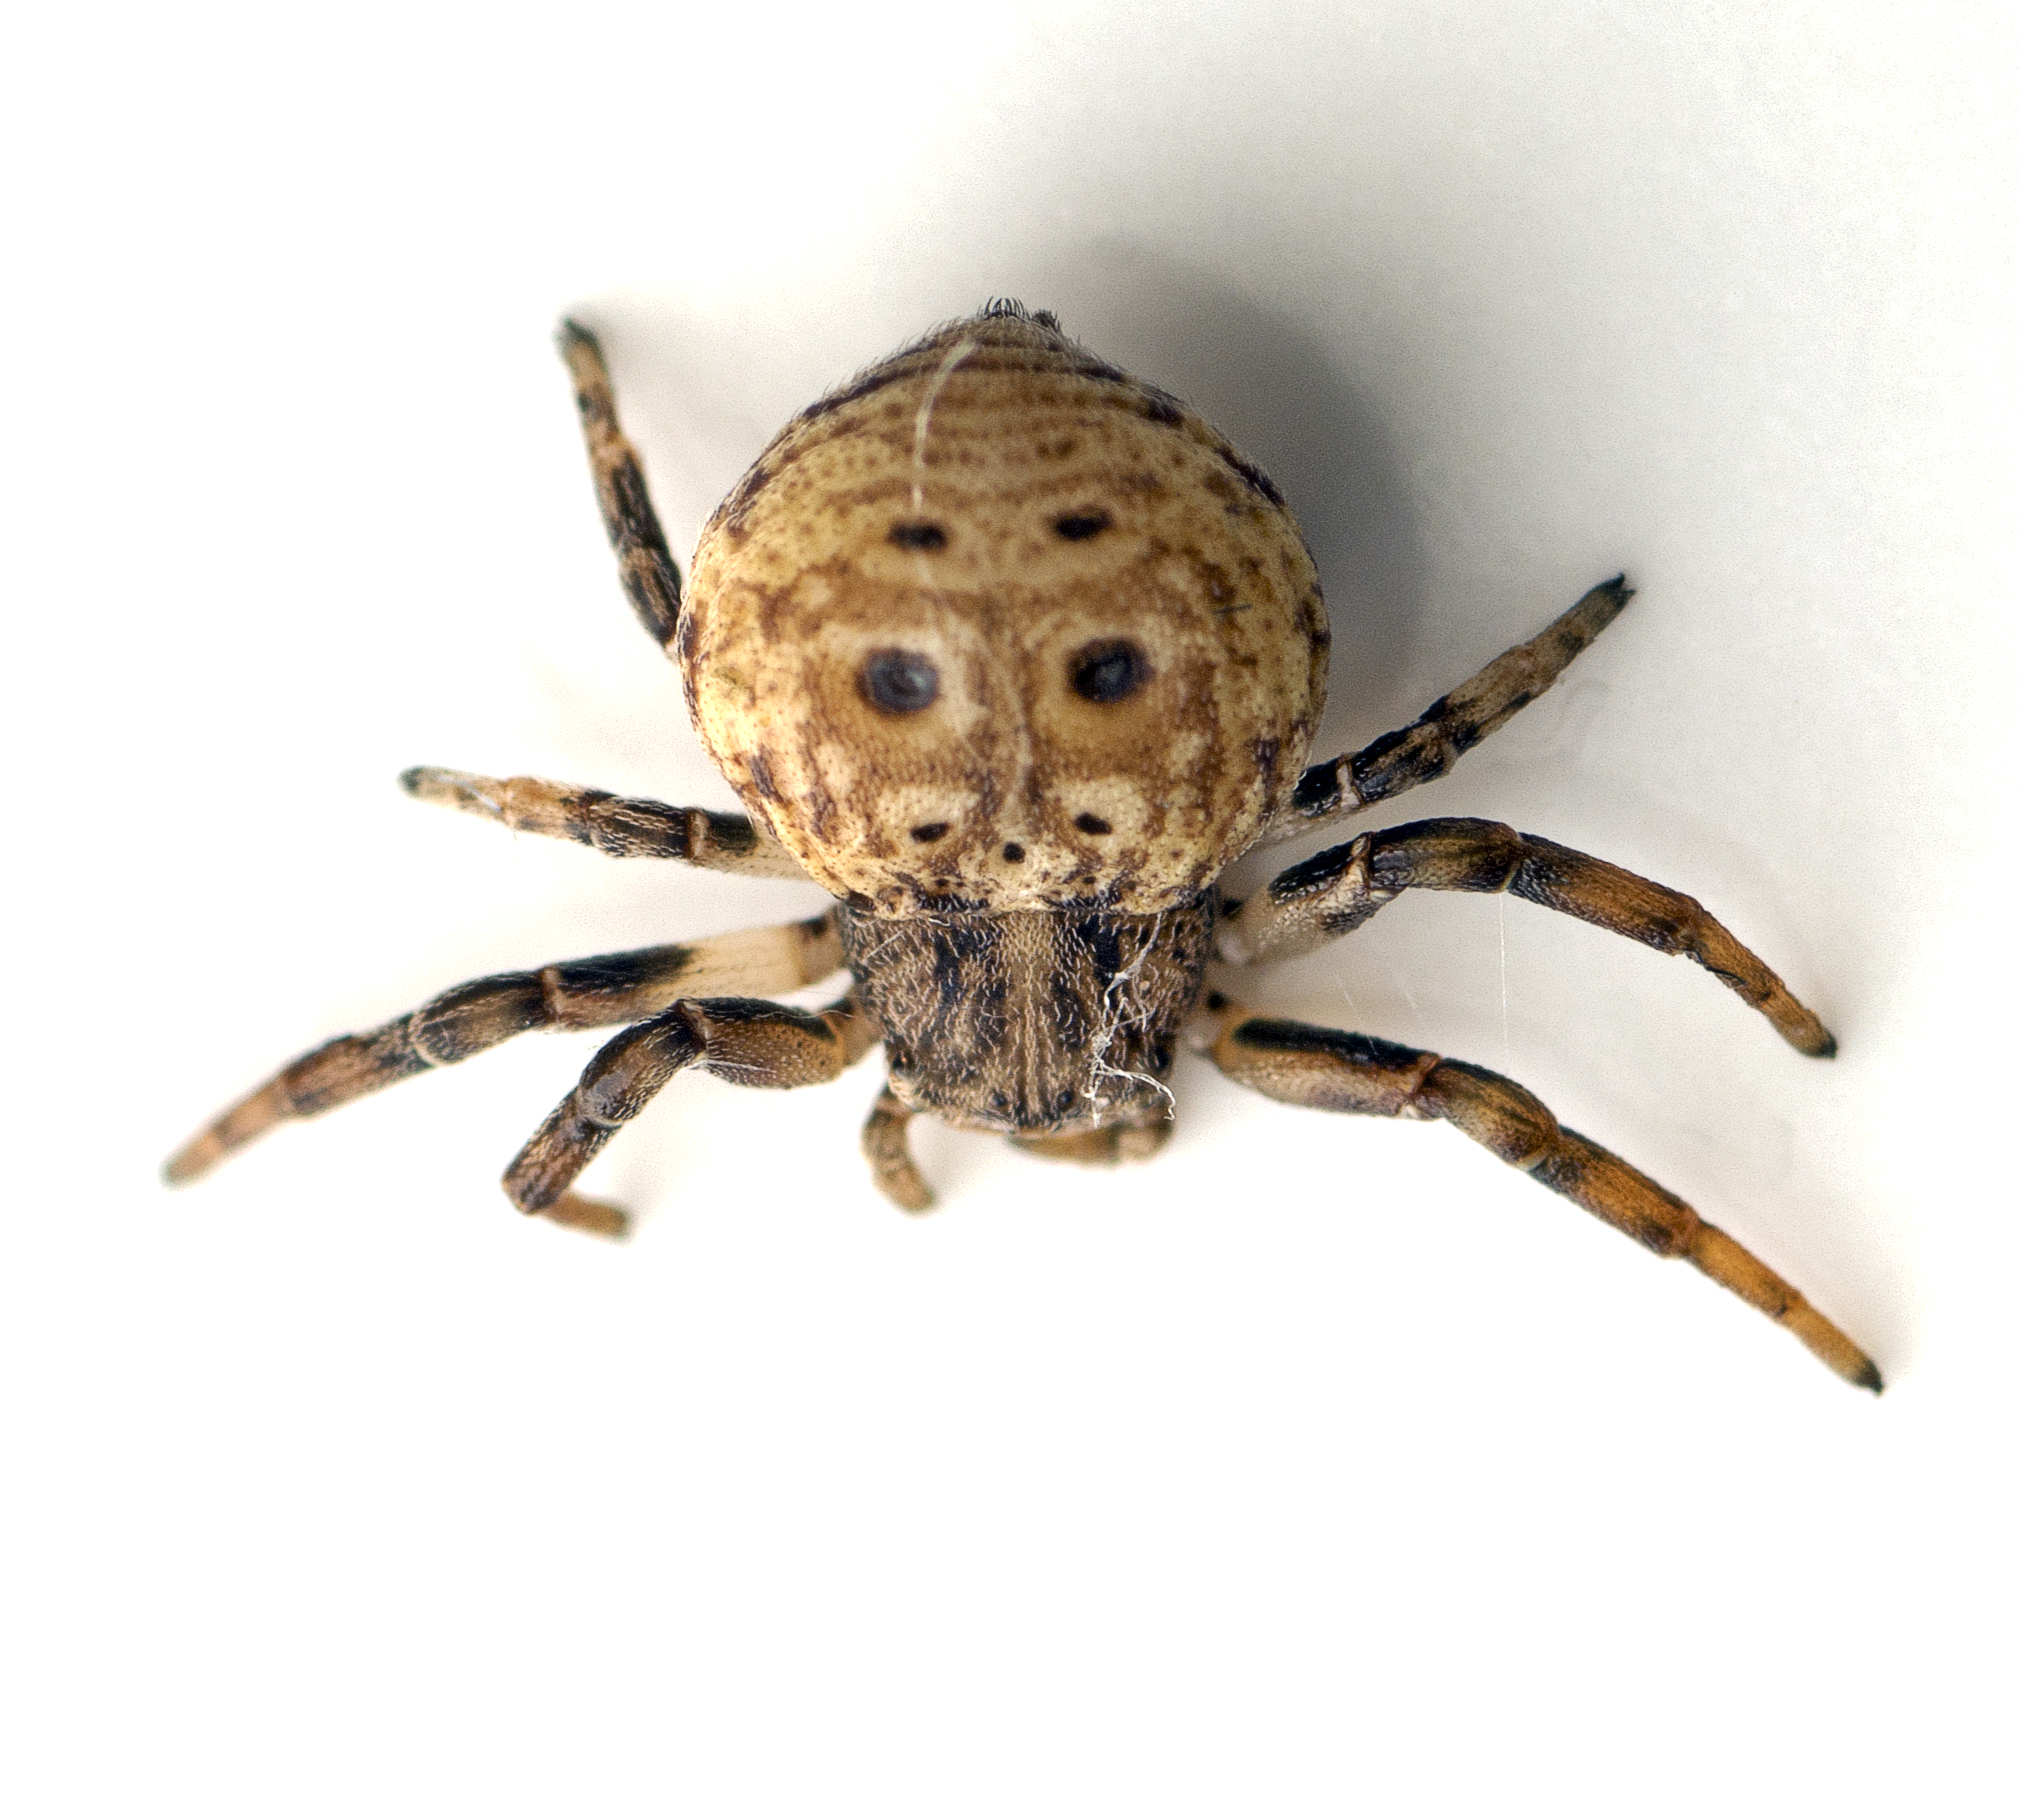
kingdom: Animalia
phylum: Arthropoda
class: Arachnida
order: Araneae
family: Thomisidae
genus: Cymbacha
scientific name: Cymbacha ocellata
